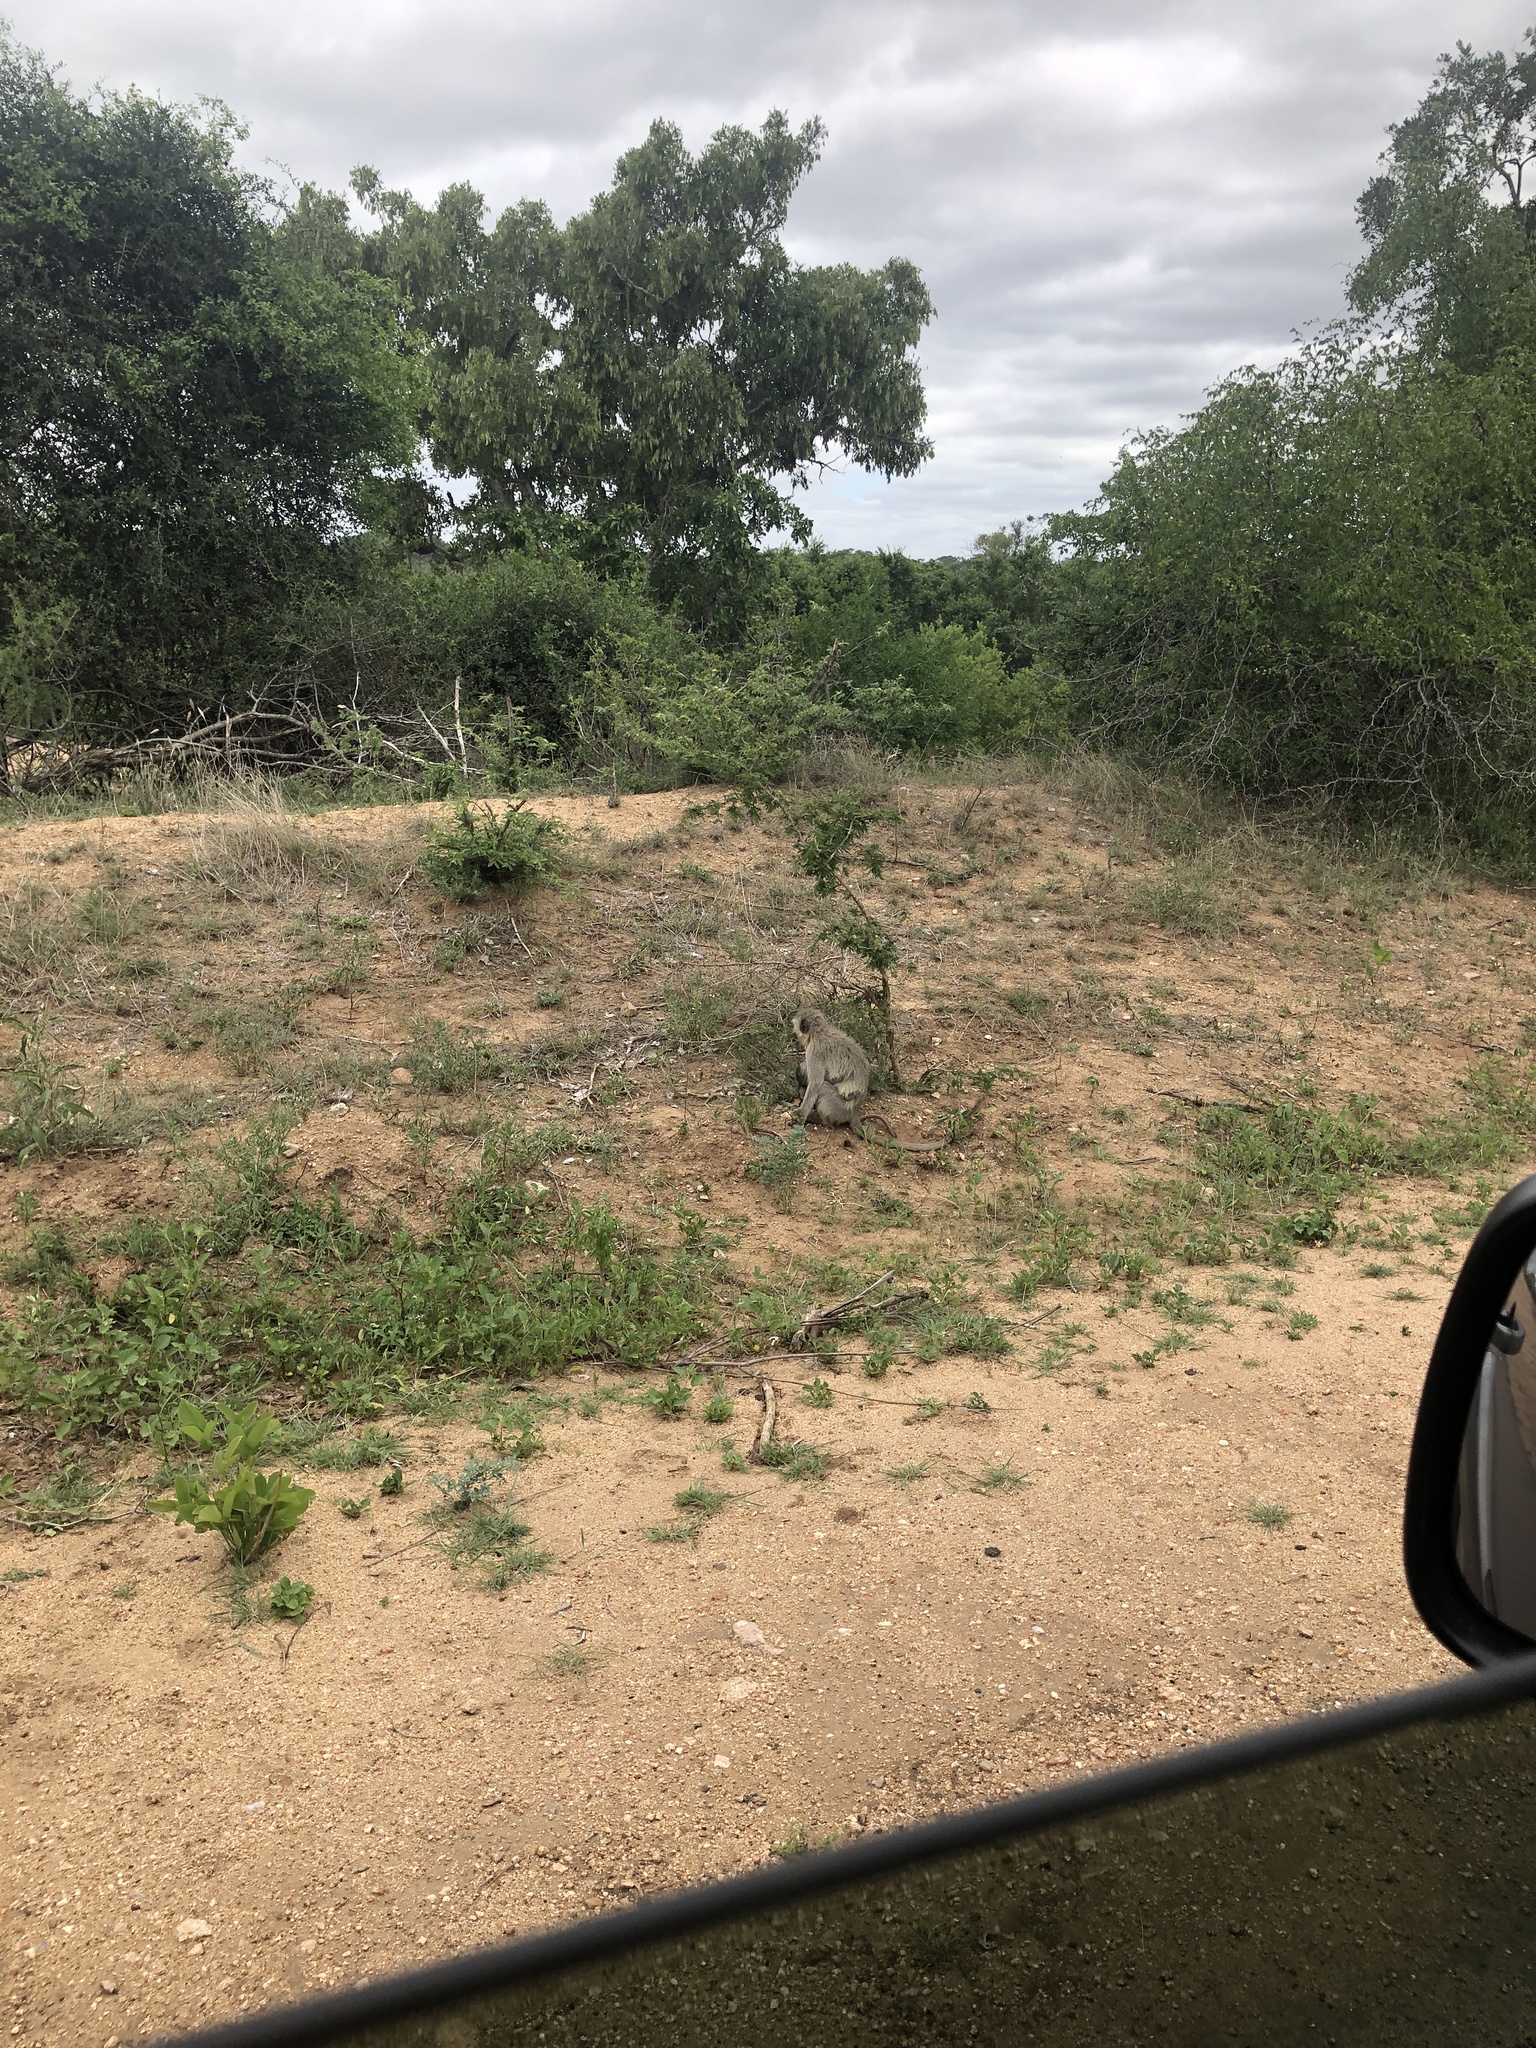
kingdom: Animalia
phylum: Chordata
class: Mammalia
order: Primates
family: Cercopithecidae
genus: Chlorocebus
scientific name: Chlorocebus pygerythrus
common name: Vervet monkey
